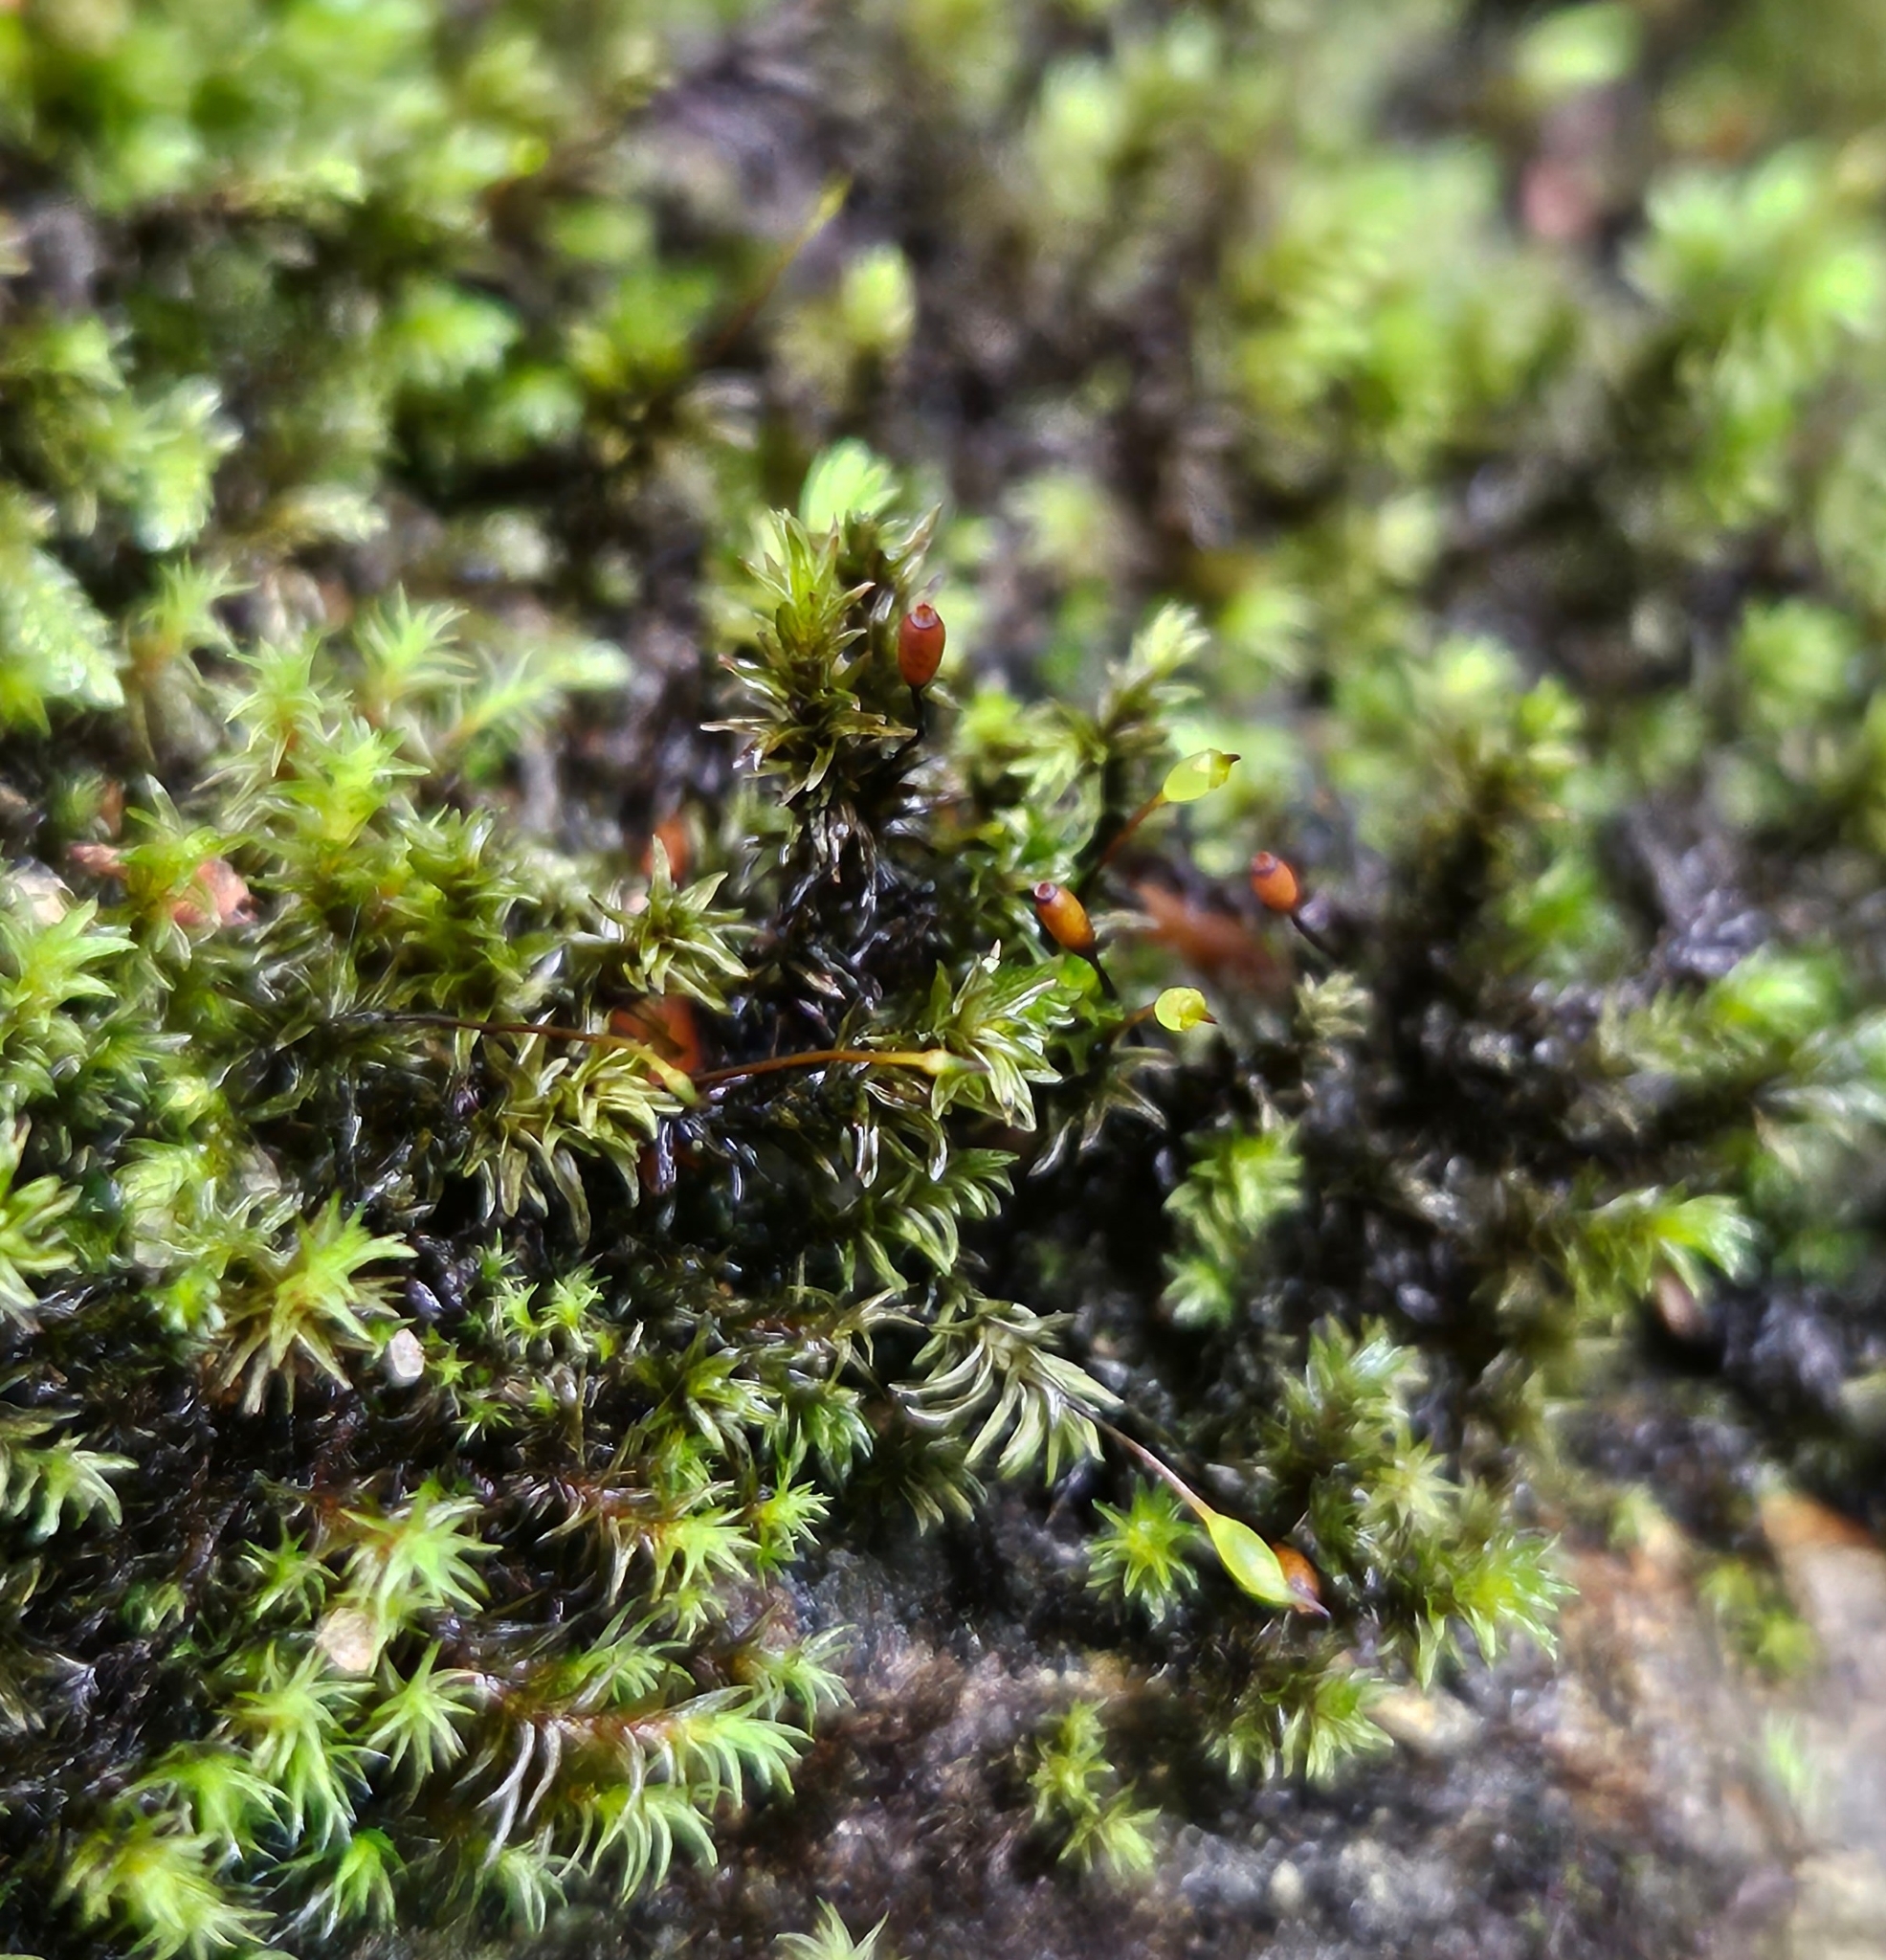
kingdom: Plantae
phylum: Bryophyta
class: Bryopsida
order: Grimmiales
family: Grimmiaceae
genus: Codriophorus
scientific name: Codriophorus acicularis
